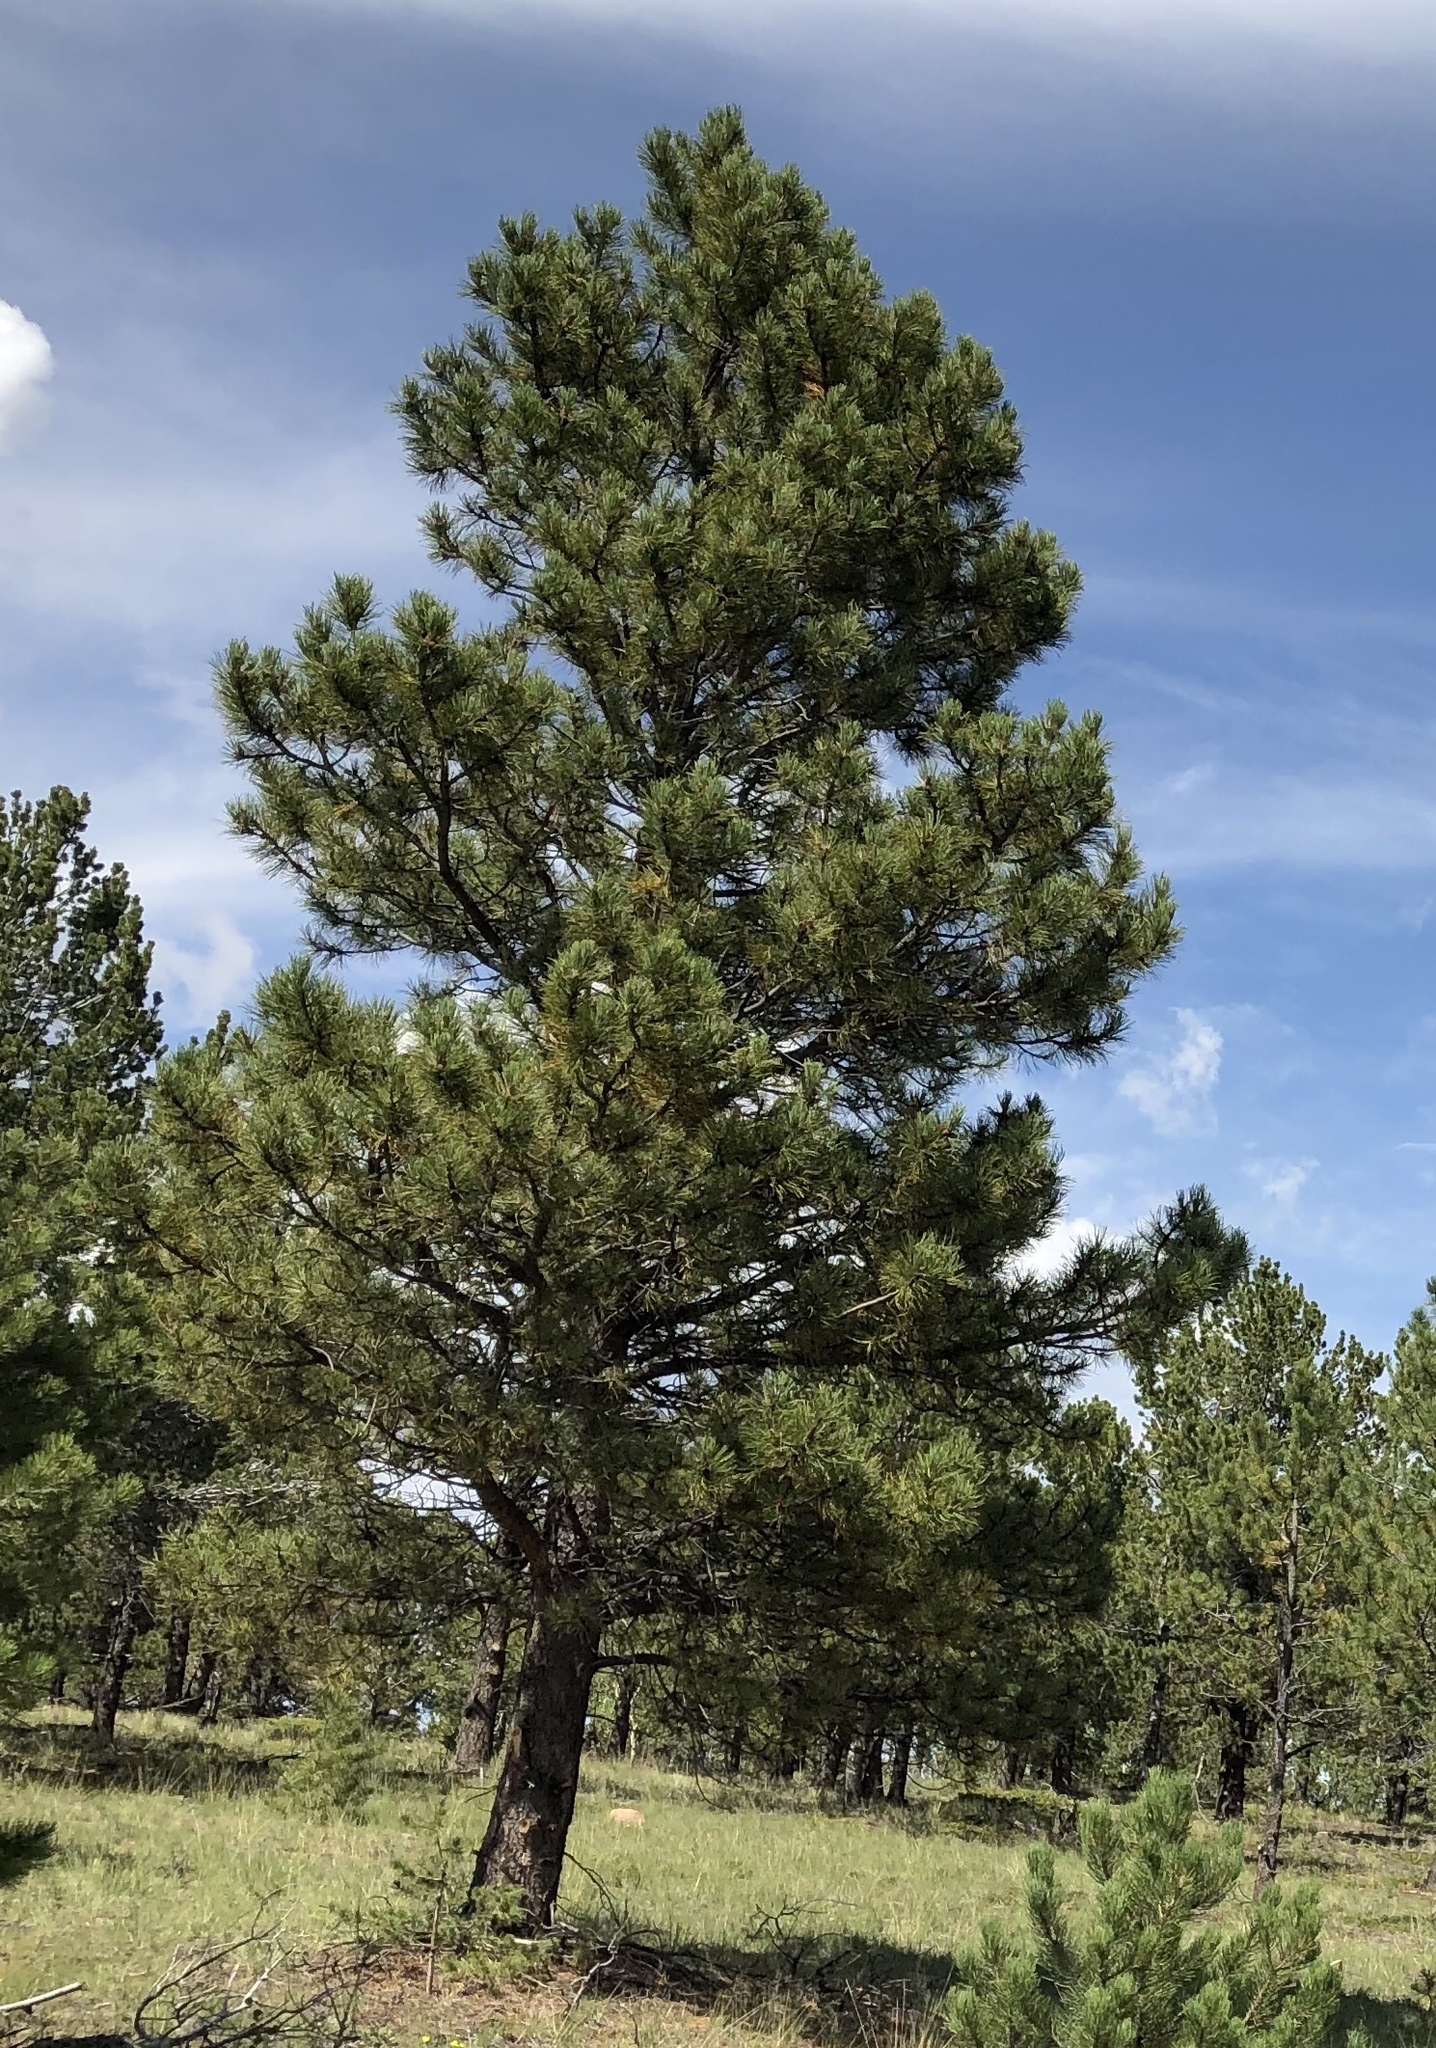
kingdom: Plantae
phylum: Tracheophyta
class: Pinopsida
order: Pinales
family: Pinaceae
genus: Pinus
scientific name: Pinus ponderosa
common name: Western yellow-pine
